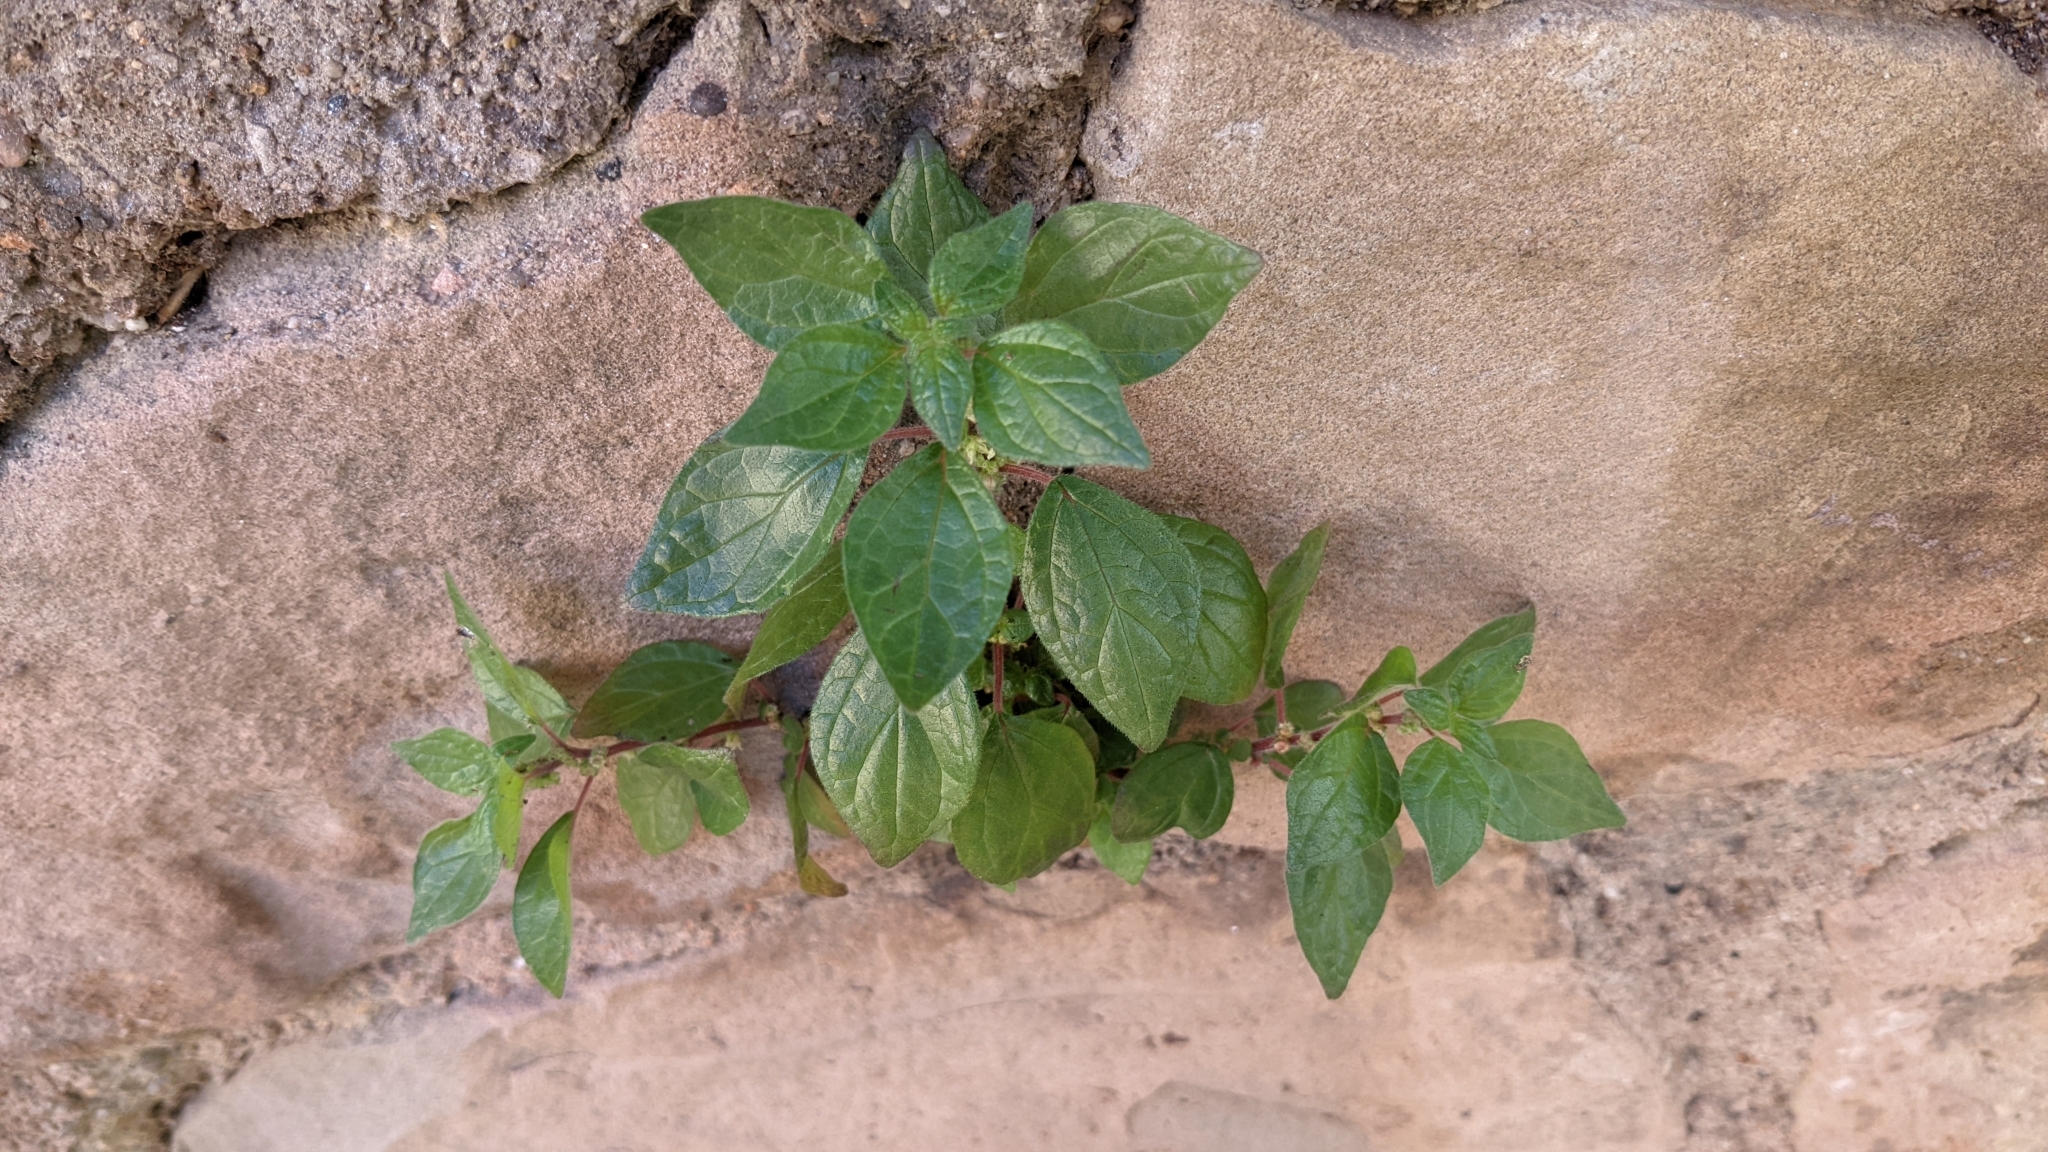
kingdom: Plantae
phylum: Tracheophyta
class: Magnoliopsida
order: Rosales
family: Urticaceae
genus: Parietaria
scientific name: Parietaria judaica
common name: Pellitory-of-the-wall
